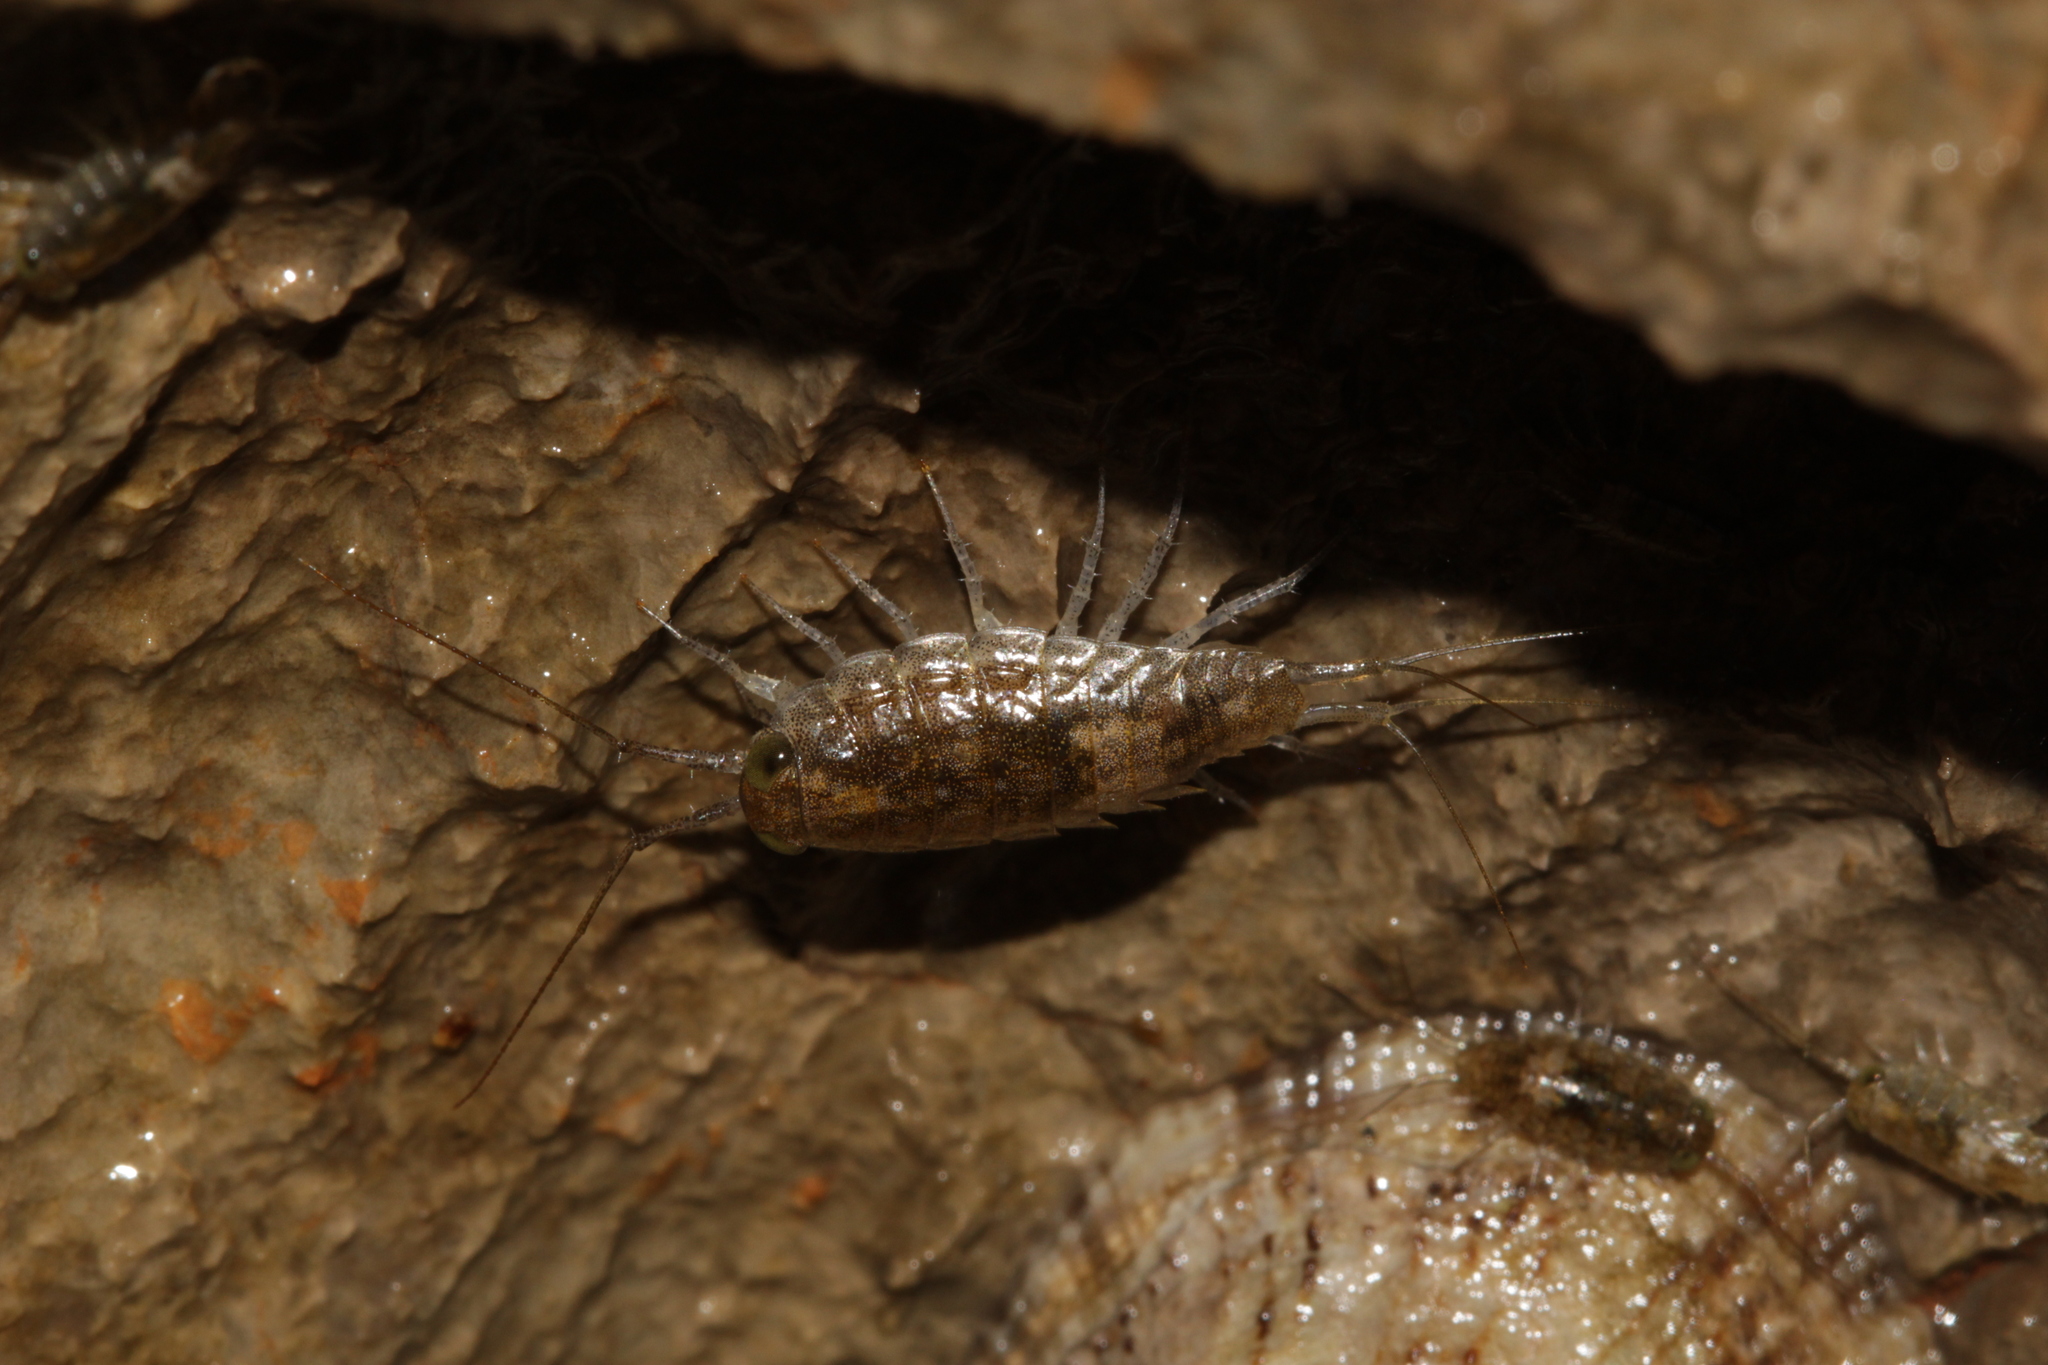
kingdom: Animalia
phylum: Arthropoda
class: Malacostraca
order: Isopoda
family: Ligiidae
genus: Ligia
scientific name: Ligia italica
